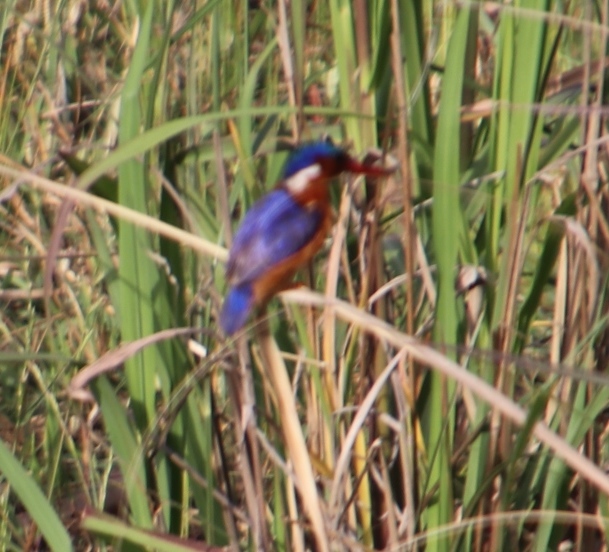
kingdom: Animalia
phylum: Chordata
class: Aves
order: Coraciiformes
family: Alcedinidae
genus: Corythornis
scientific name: Corythornis cristatus
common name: Malachite kingfisher
